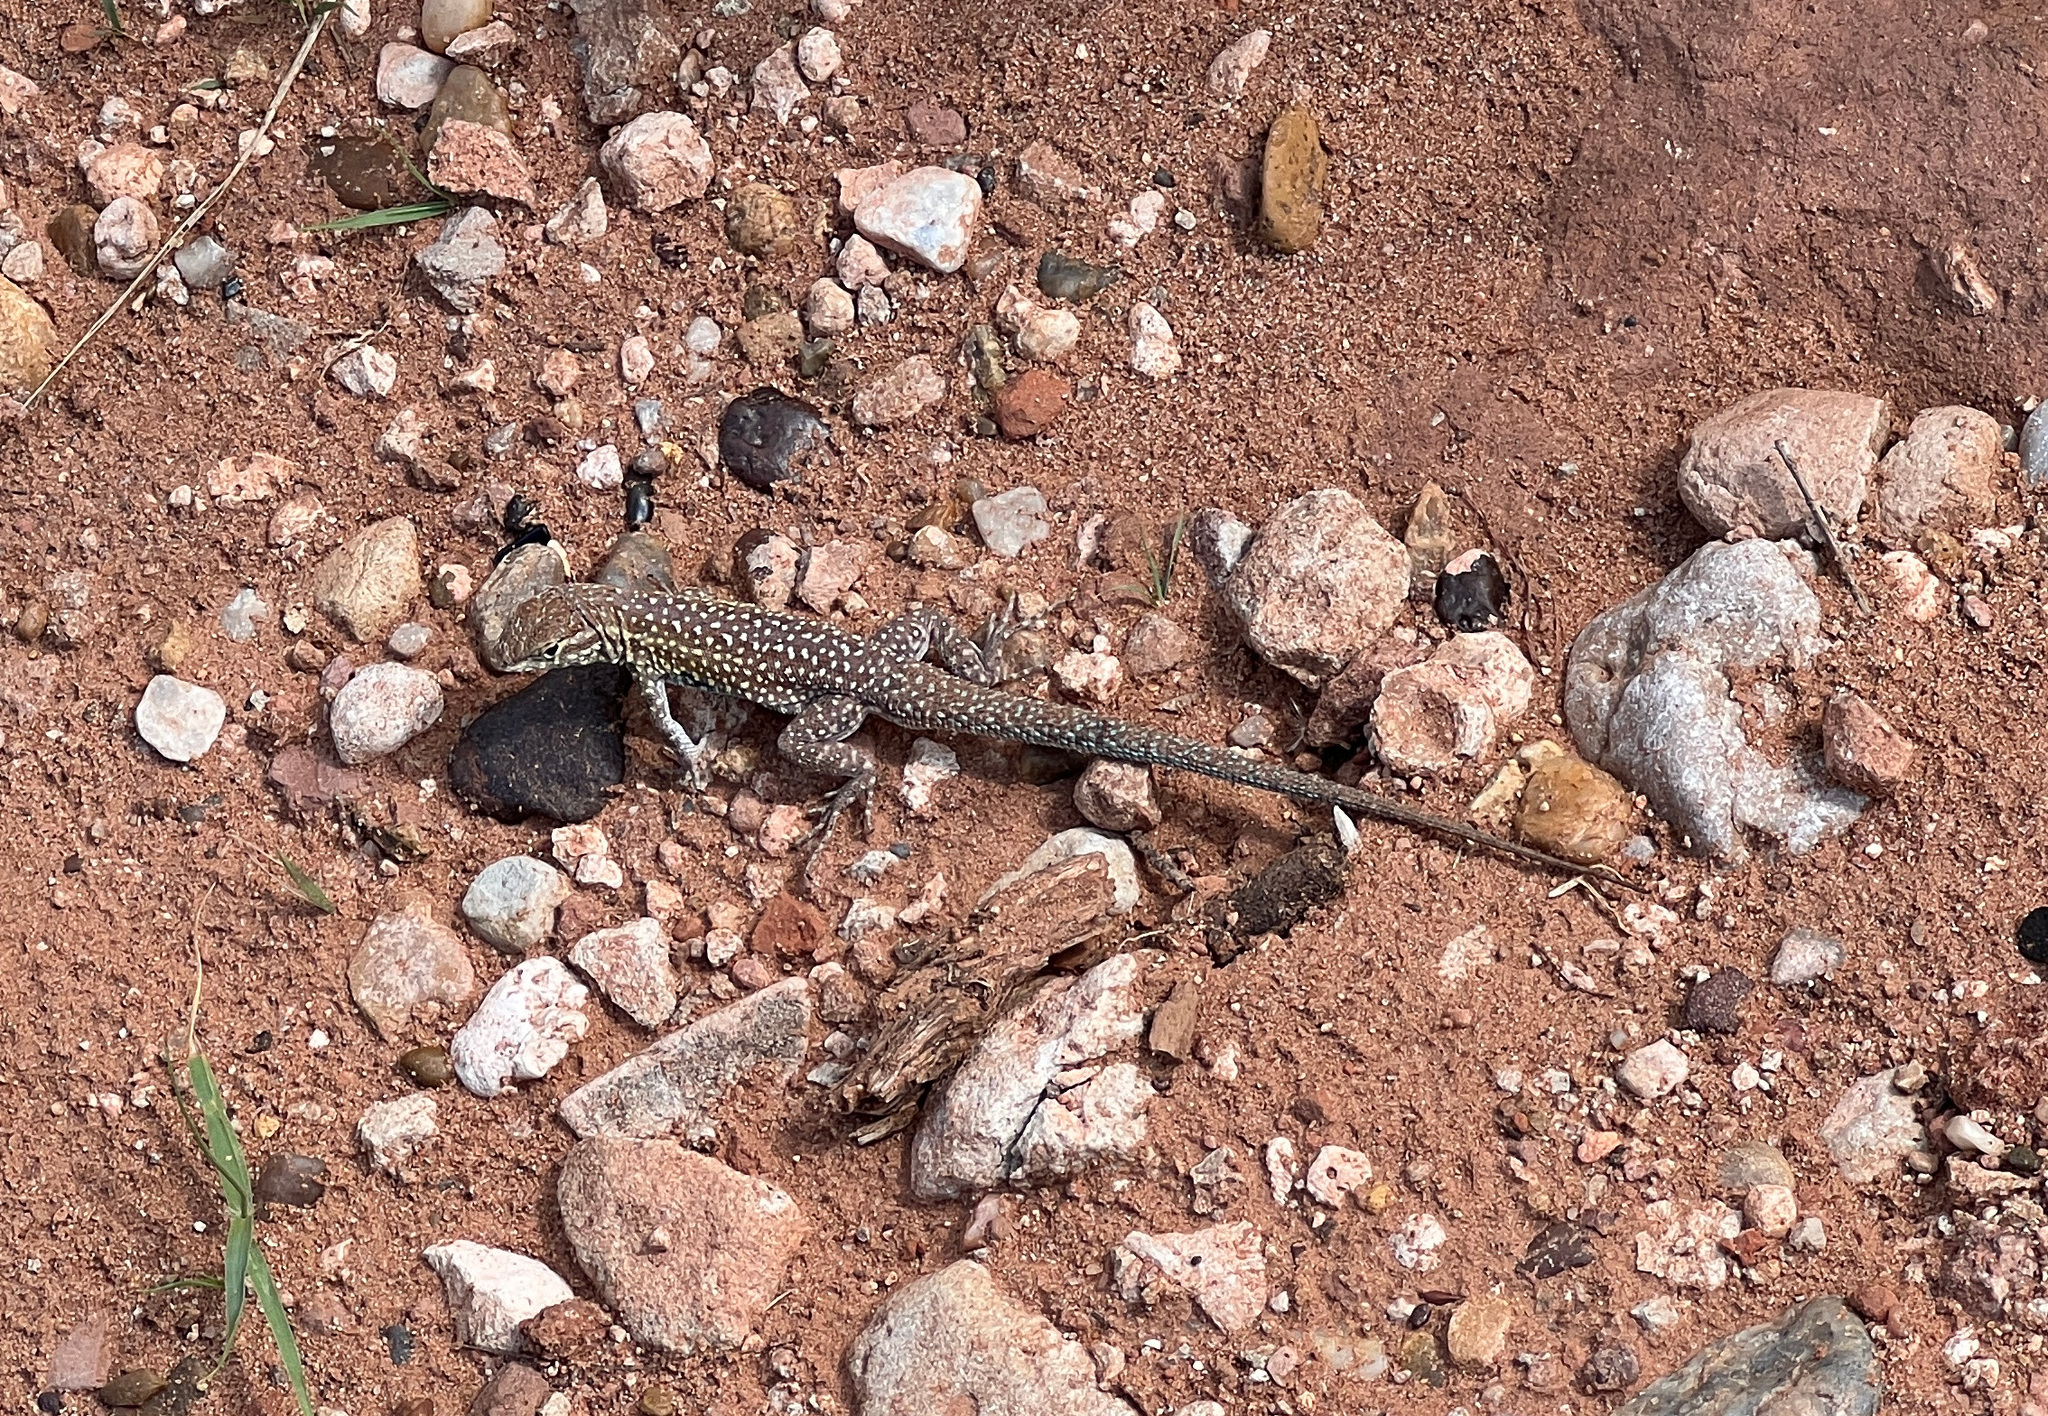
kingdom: Animalia
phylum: Chordata
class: Squamata
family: Phrynosomatidae
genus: Uta
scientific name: Uta stansburiana
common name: Side-blotched lizard
